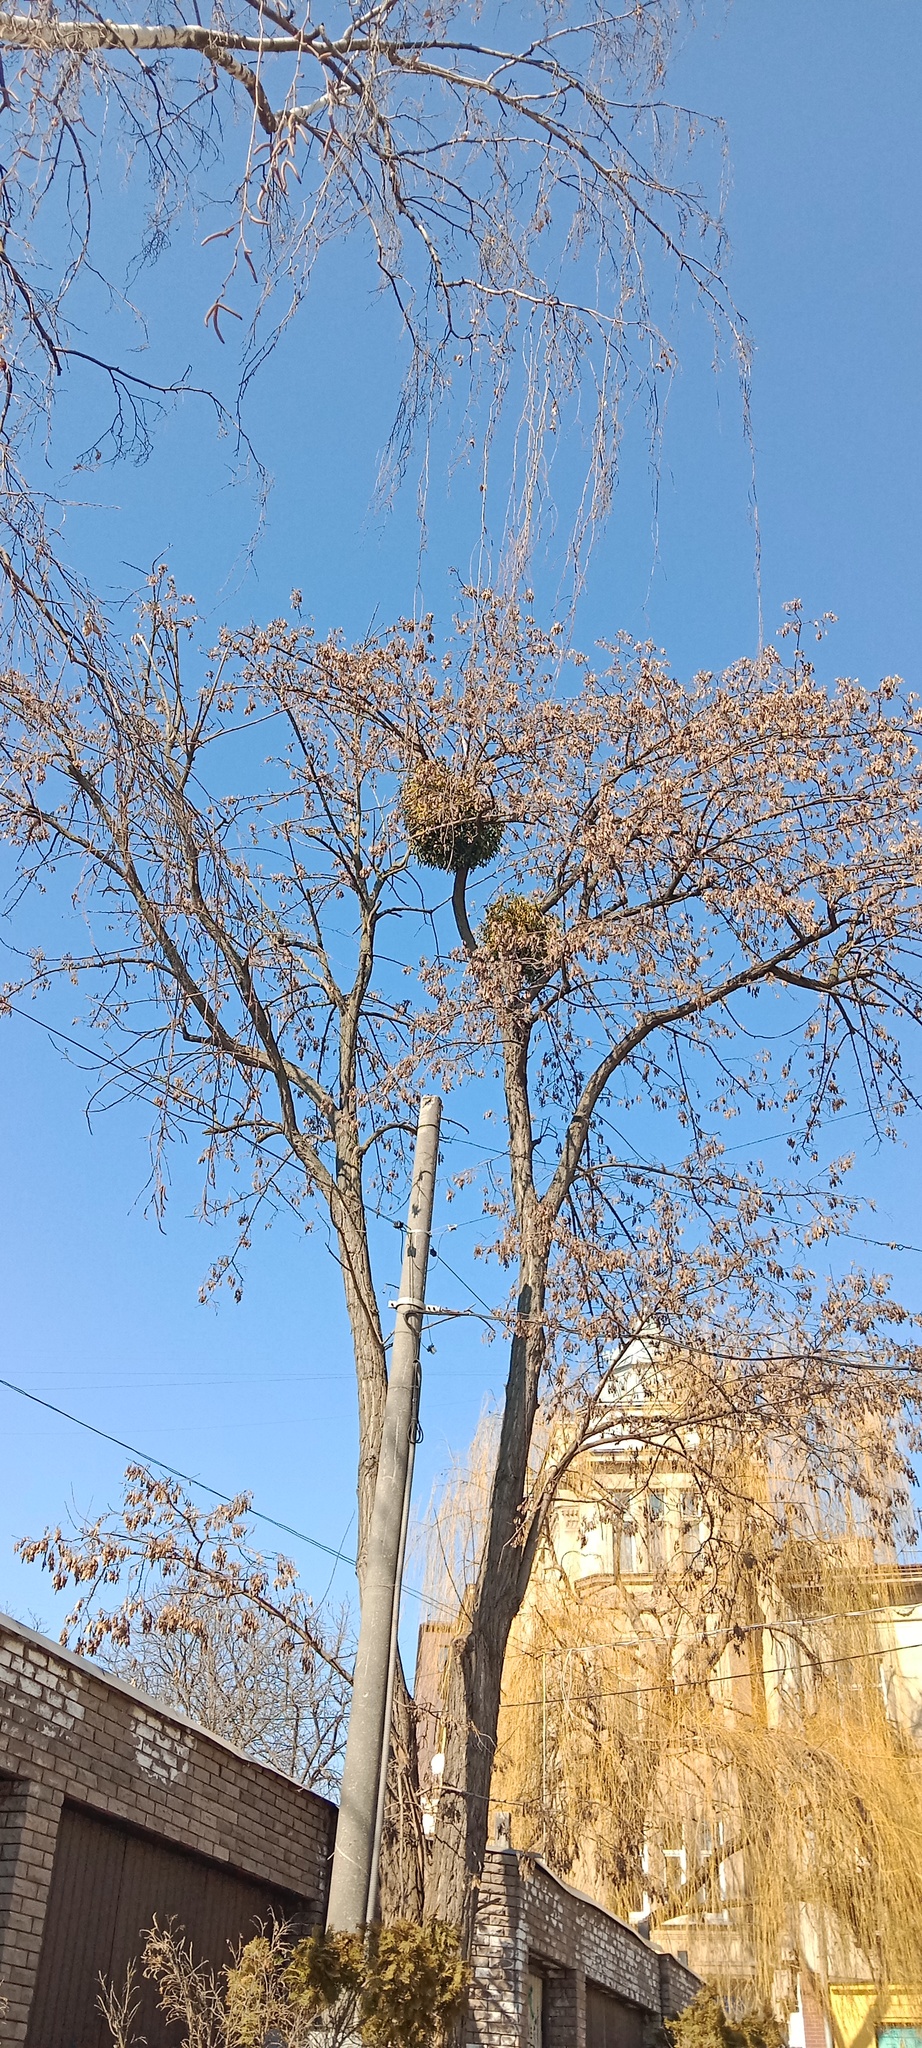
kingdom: Plantae
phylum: Tracheophyta
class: Magnoliopsida
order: Santalales
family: Viscaceae
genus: Viscum
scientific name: Viscum album
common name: Mistletoe
